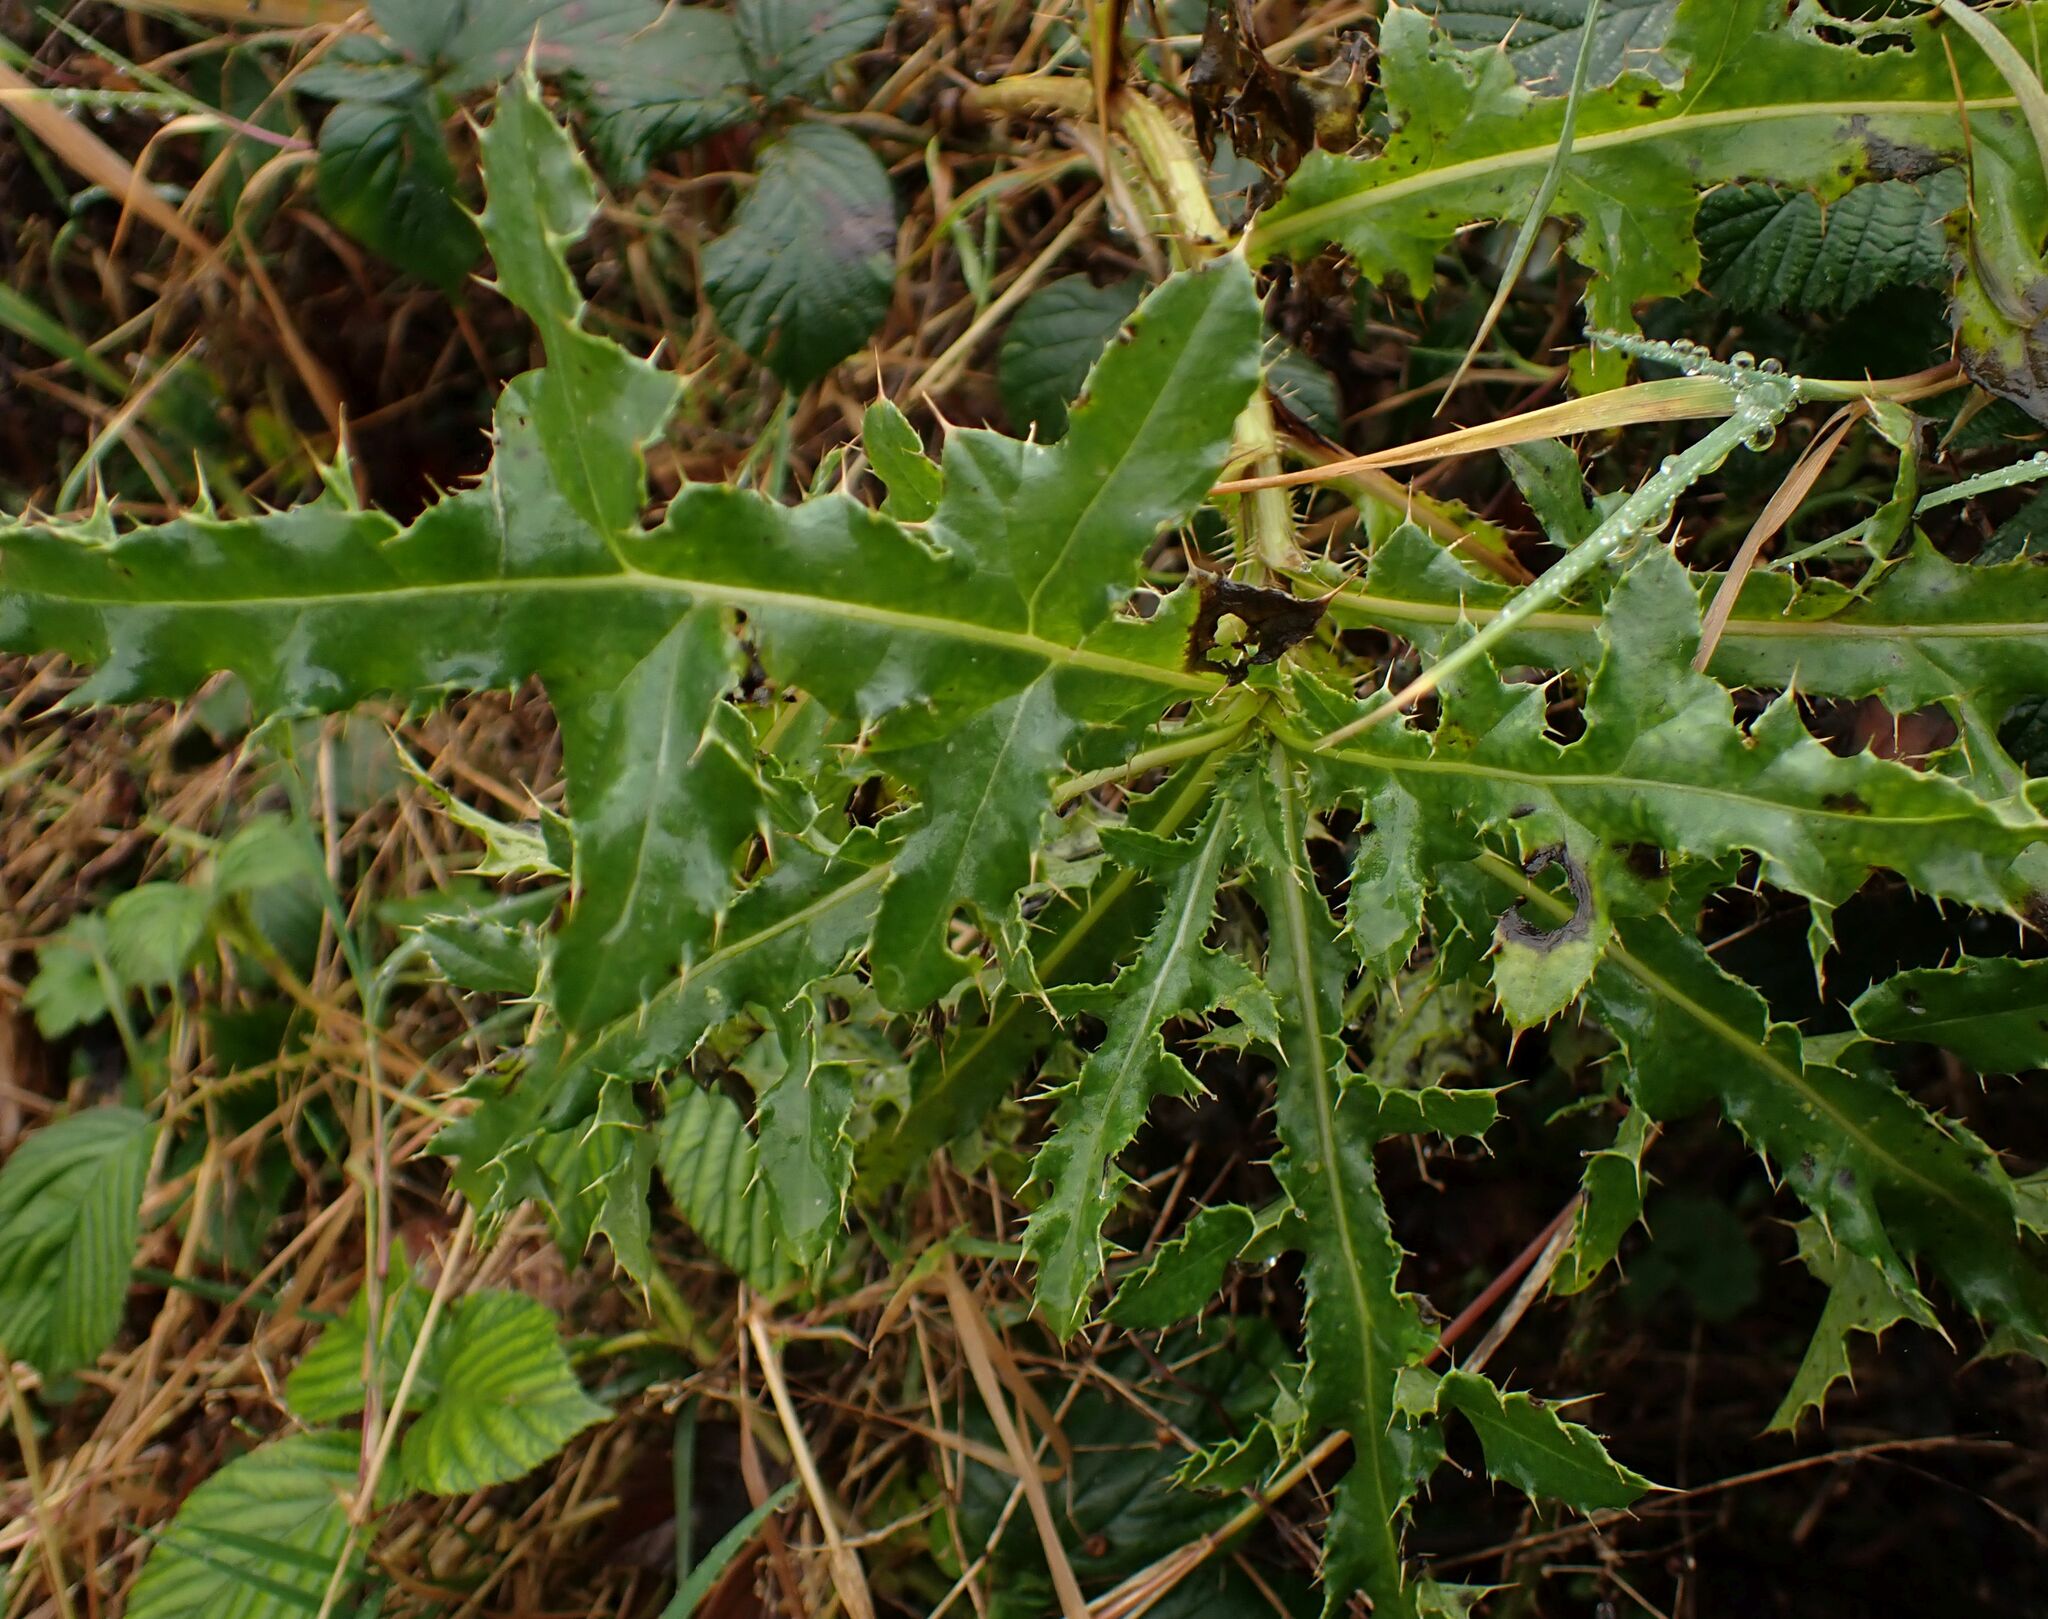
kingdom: Plantae
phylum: Tracheophyta
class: Magnoliopsida
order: Asterales
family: Asteraceae
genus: Cirsium
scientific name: Cirsium arvense
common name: Creeping thistle
